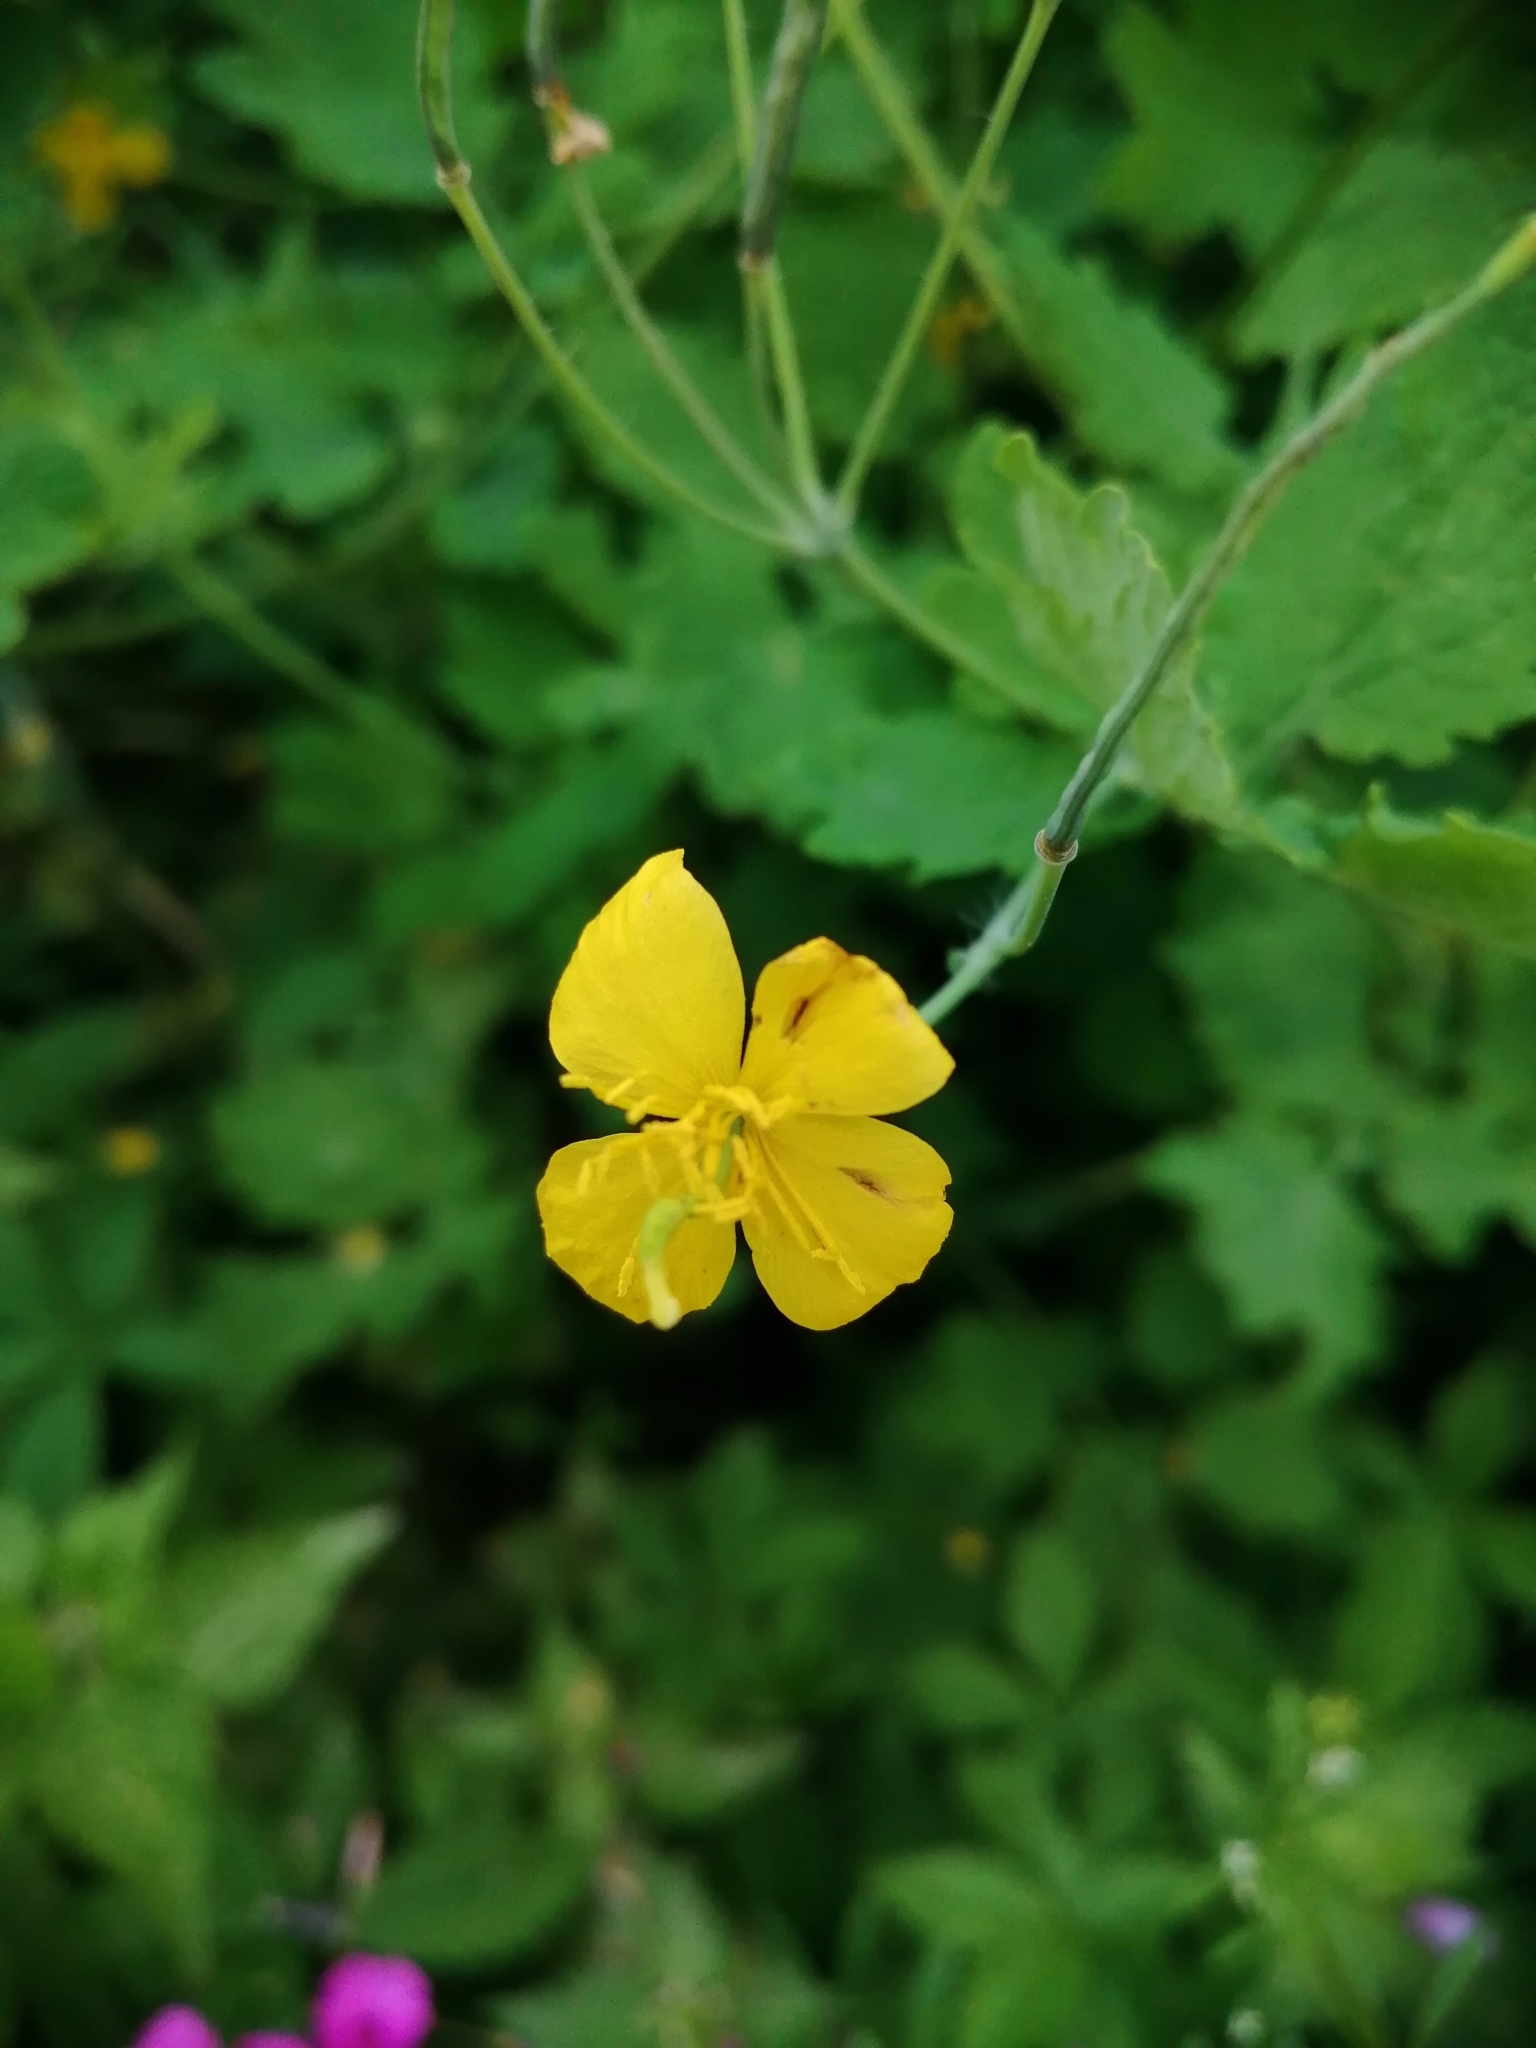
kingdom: Plantae
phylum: Tracheophyta
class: Magnoliopsida
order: Ranunculales
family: Papaveraceae
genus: Chelidonium
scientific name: Chelidonium majus
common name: Greater celandine
